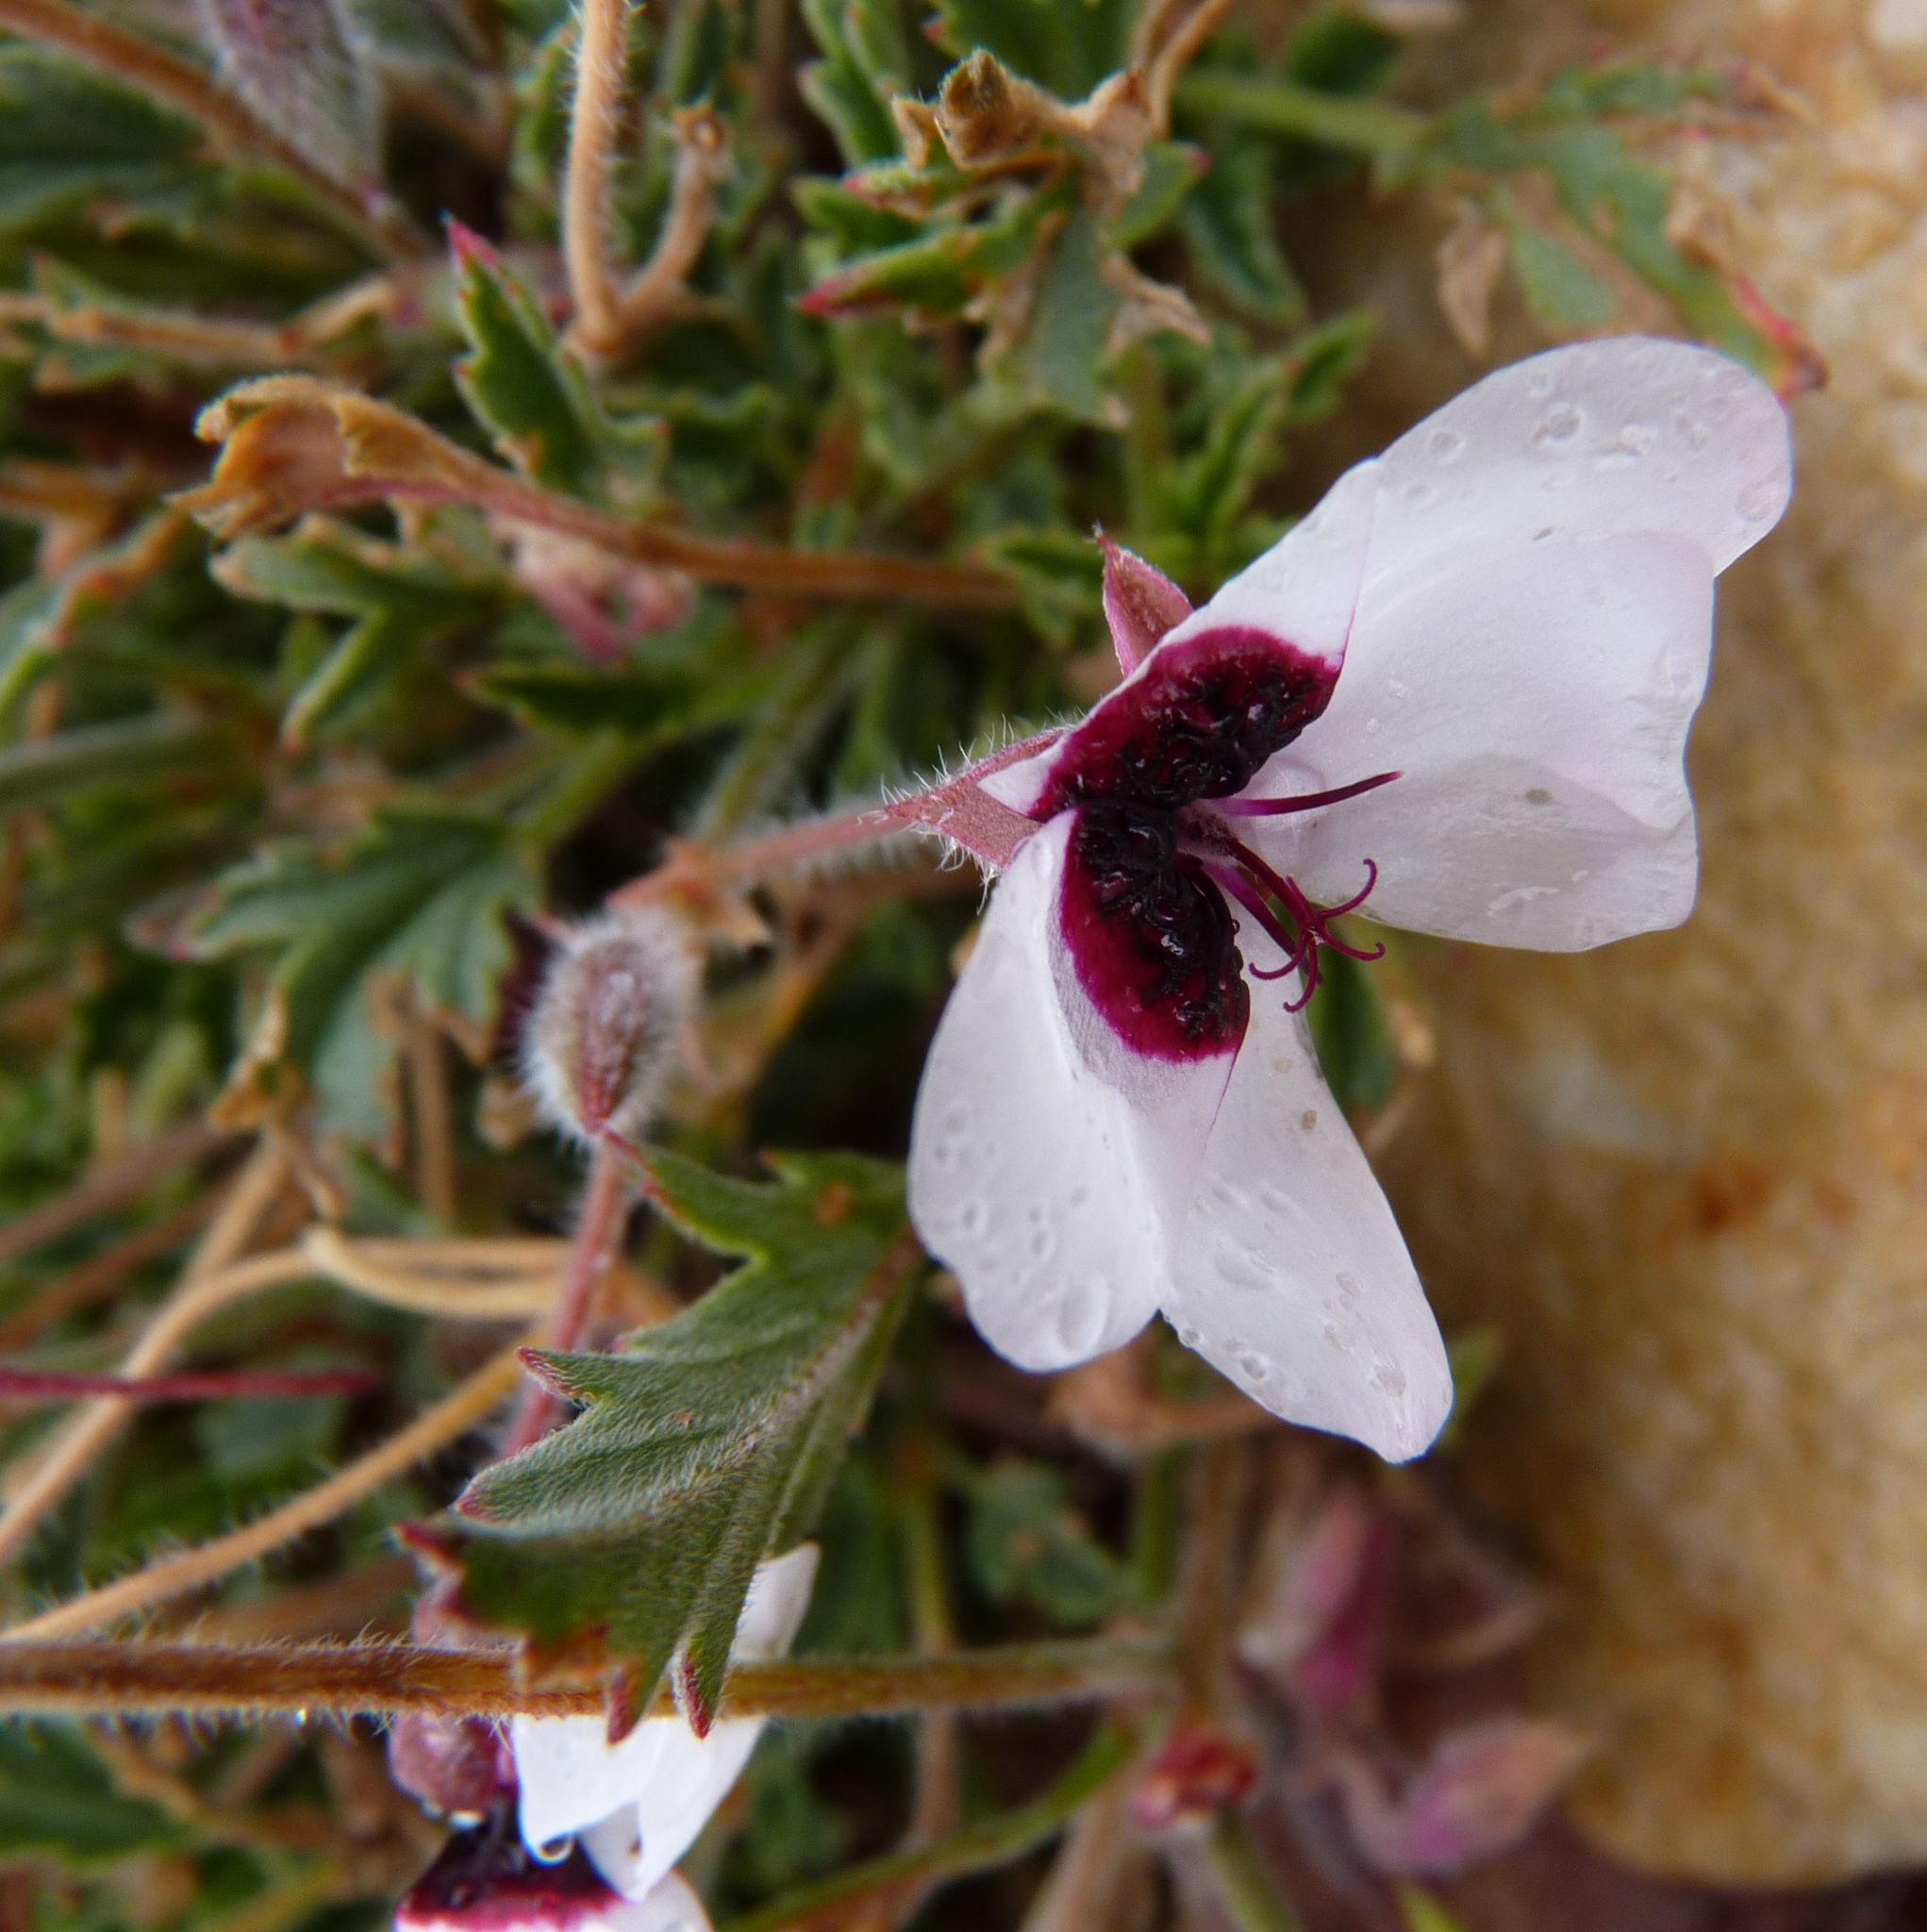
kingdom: Plantae
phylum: Tracheophyta
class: Magnoliopsida
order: Geraniales
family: Geraniaceae
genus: Pelargonium
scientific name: Pelargonium tricolor
